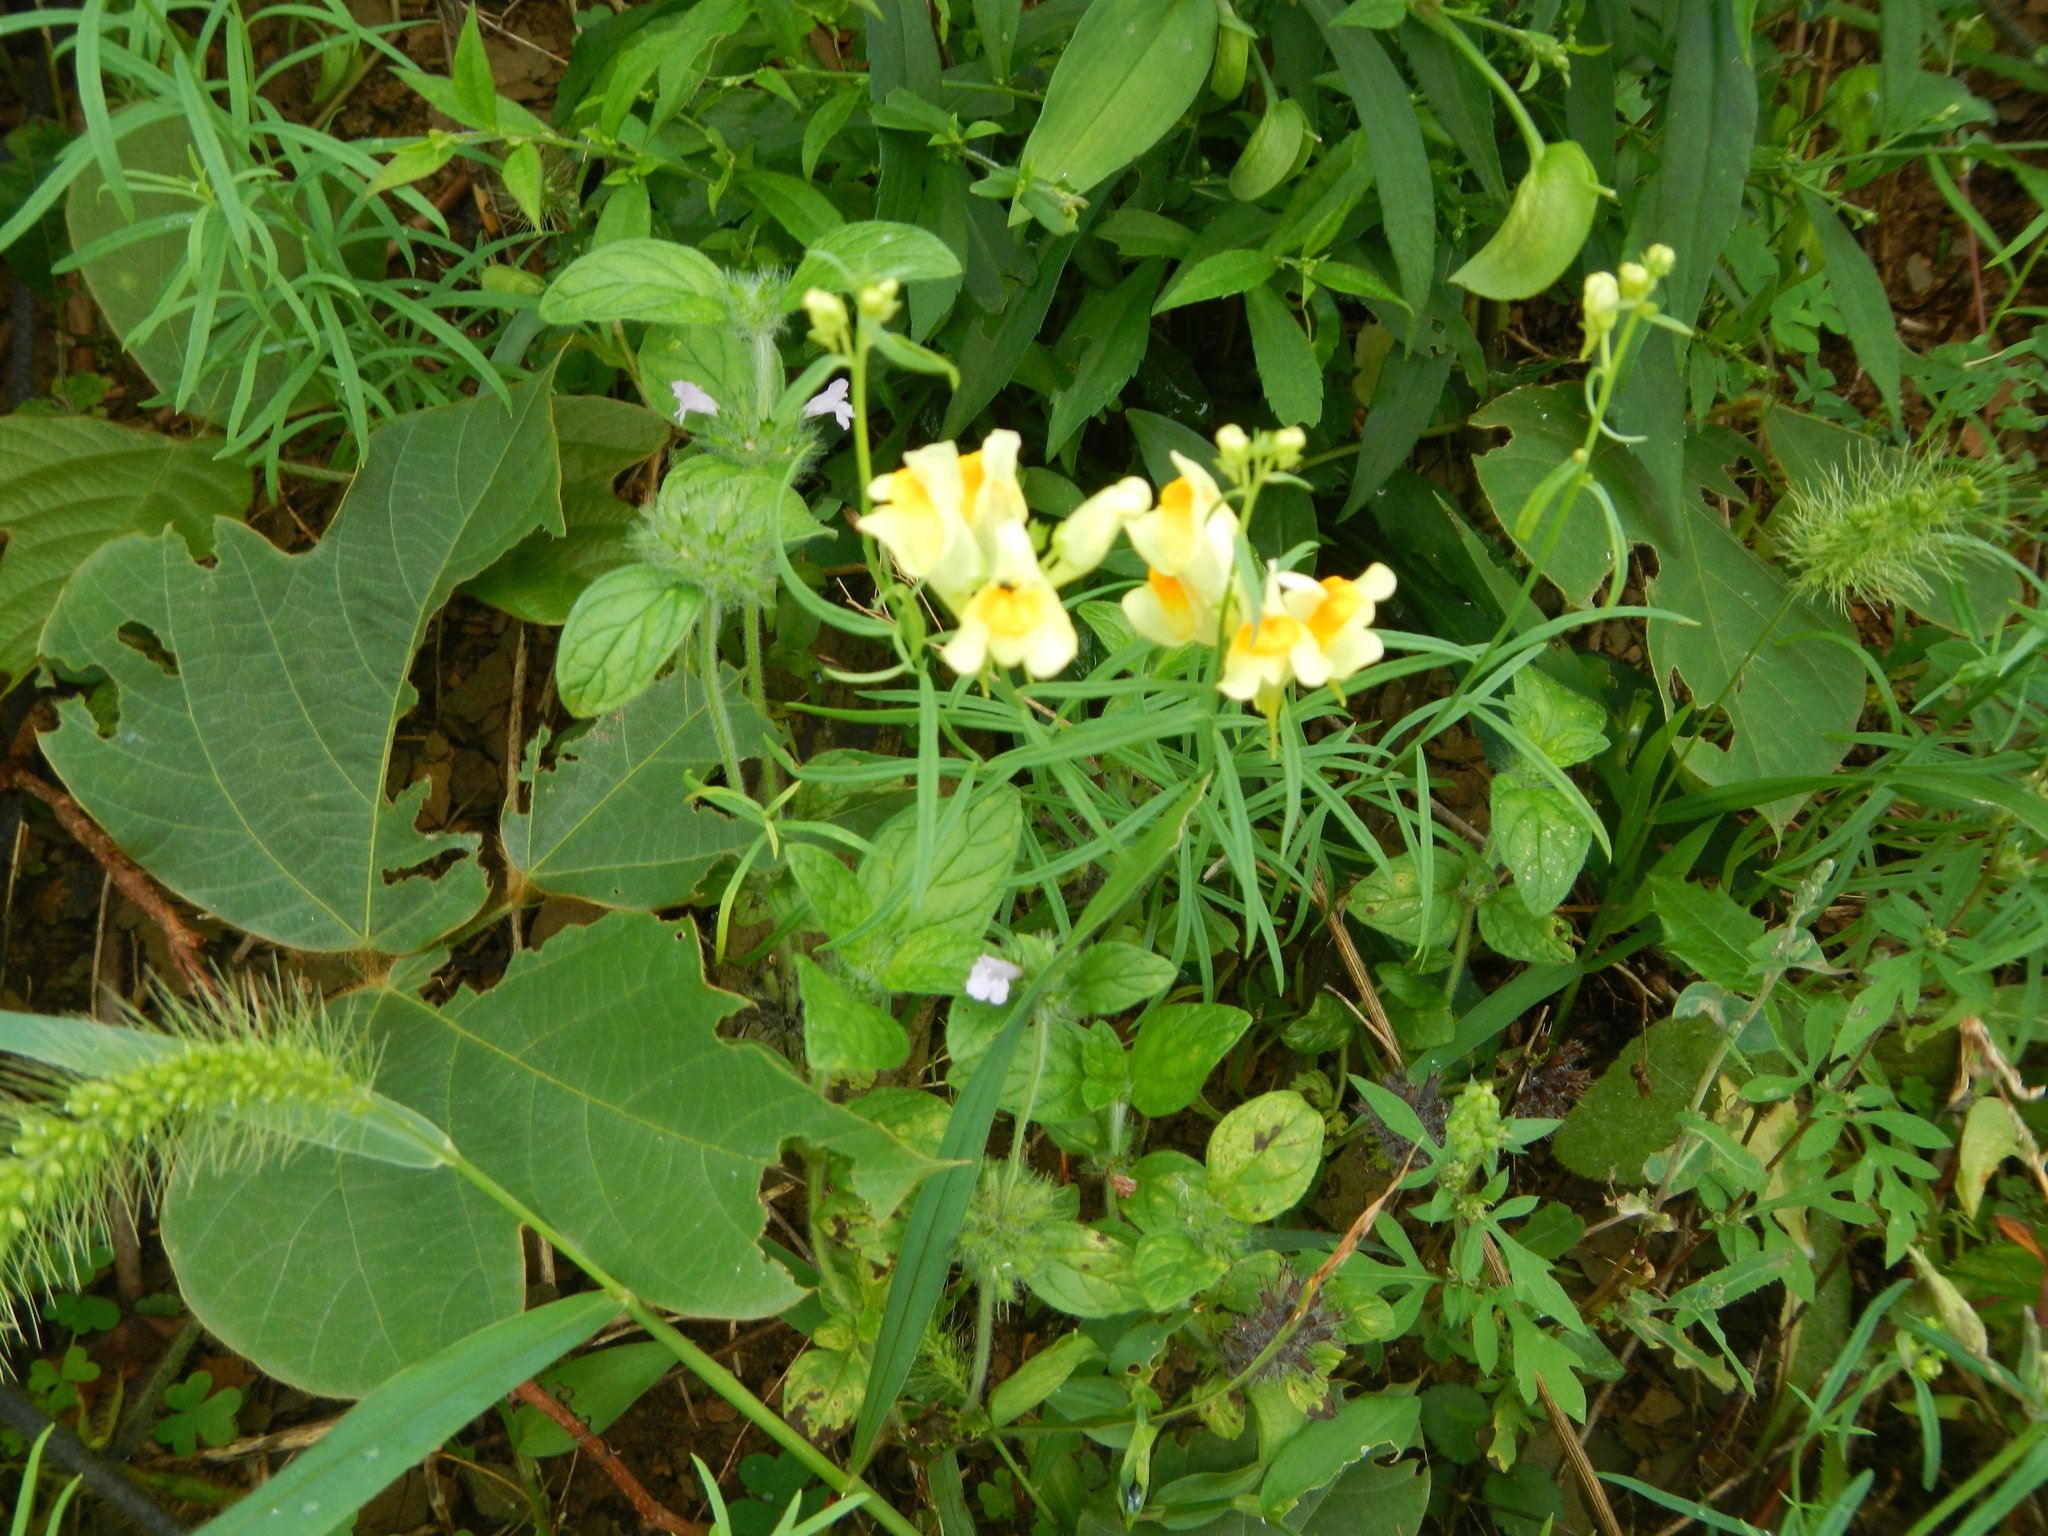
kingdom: Plantae
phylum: Tracheophyta
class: Magnoliopsida
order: Lamiales
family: Plantaginaceae
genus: Linaria
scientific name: Linaria vulgaris
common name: Butter and eggs
